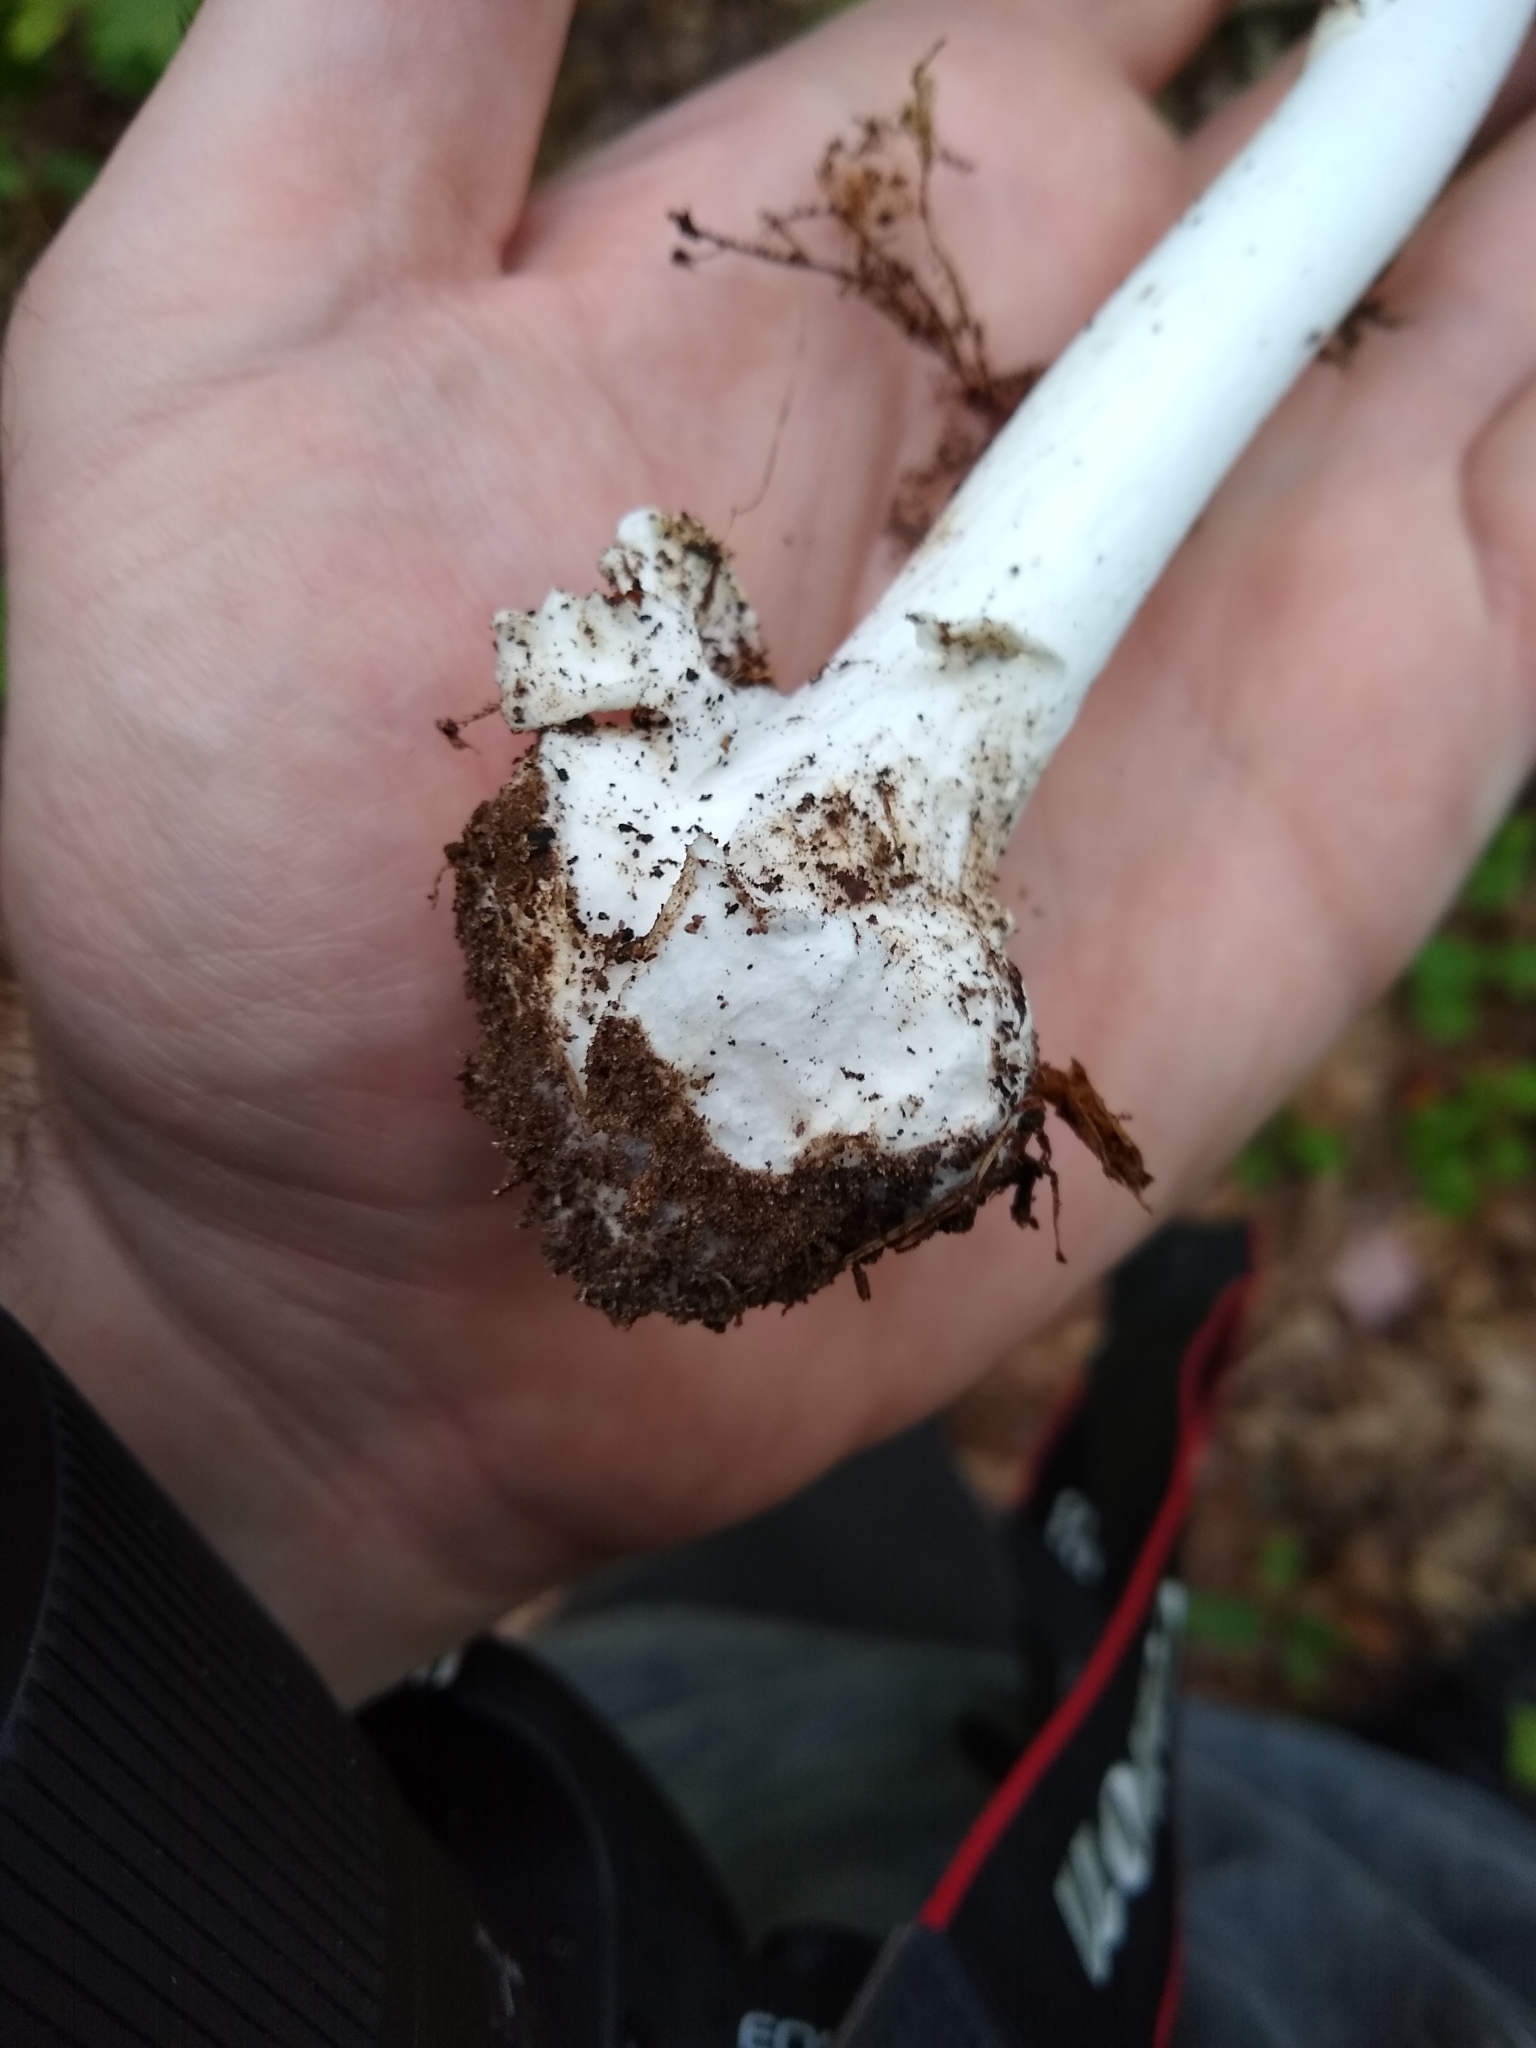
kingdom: Fungi
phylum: Basidiomycota
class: Agaricomycetes
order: Agaricales
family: Amanitaceae
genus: Amanita
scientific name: Amanita bisporigera
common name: Eastern north american destroying angel
